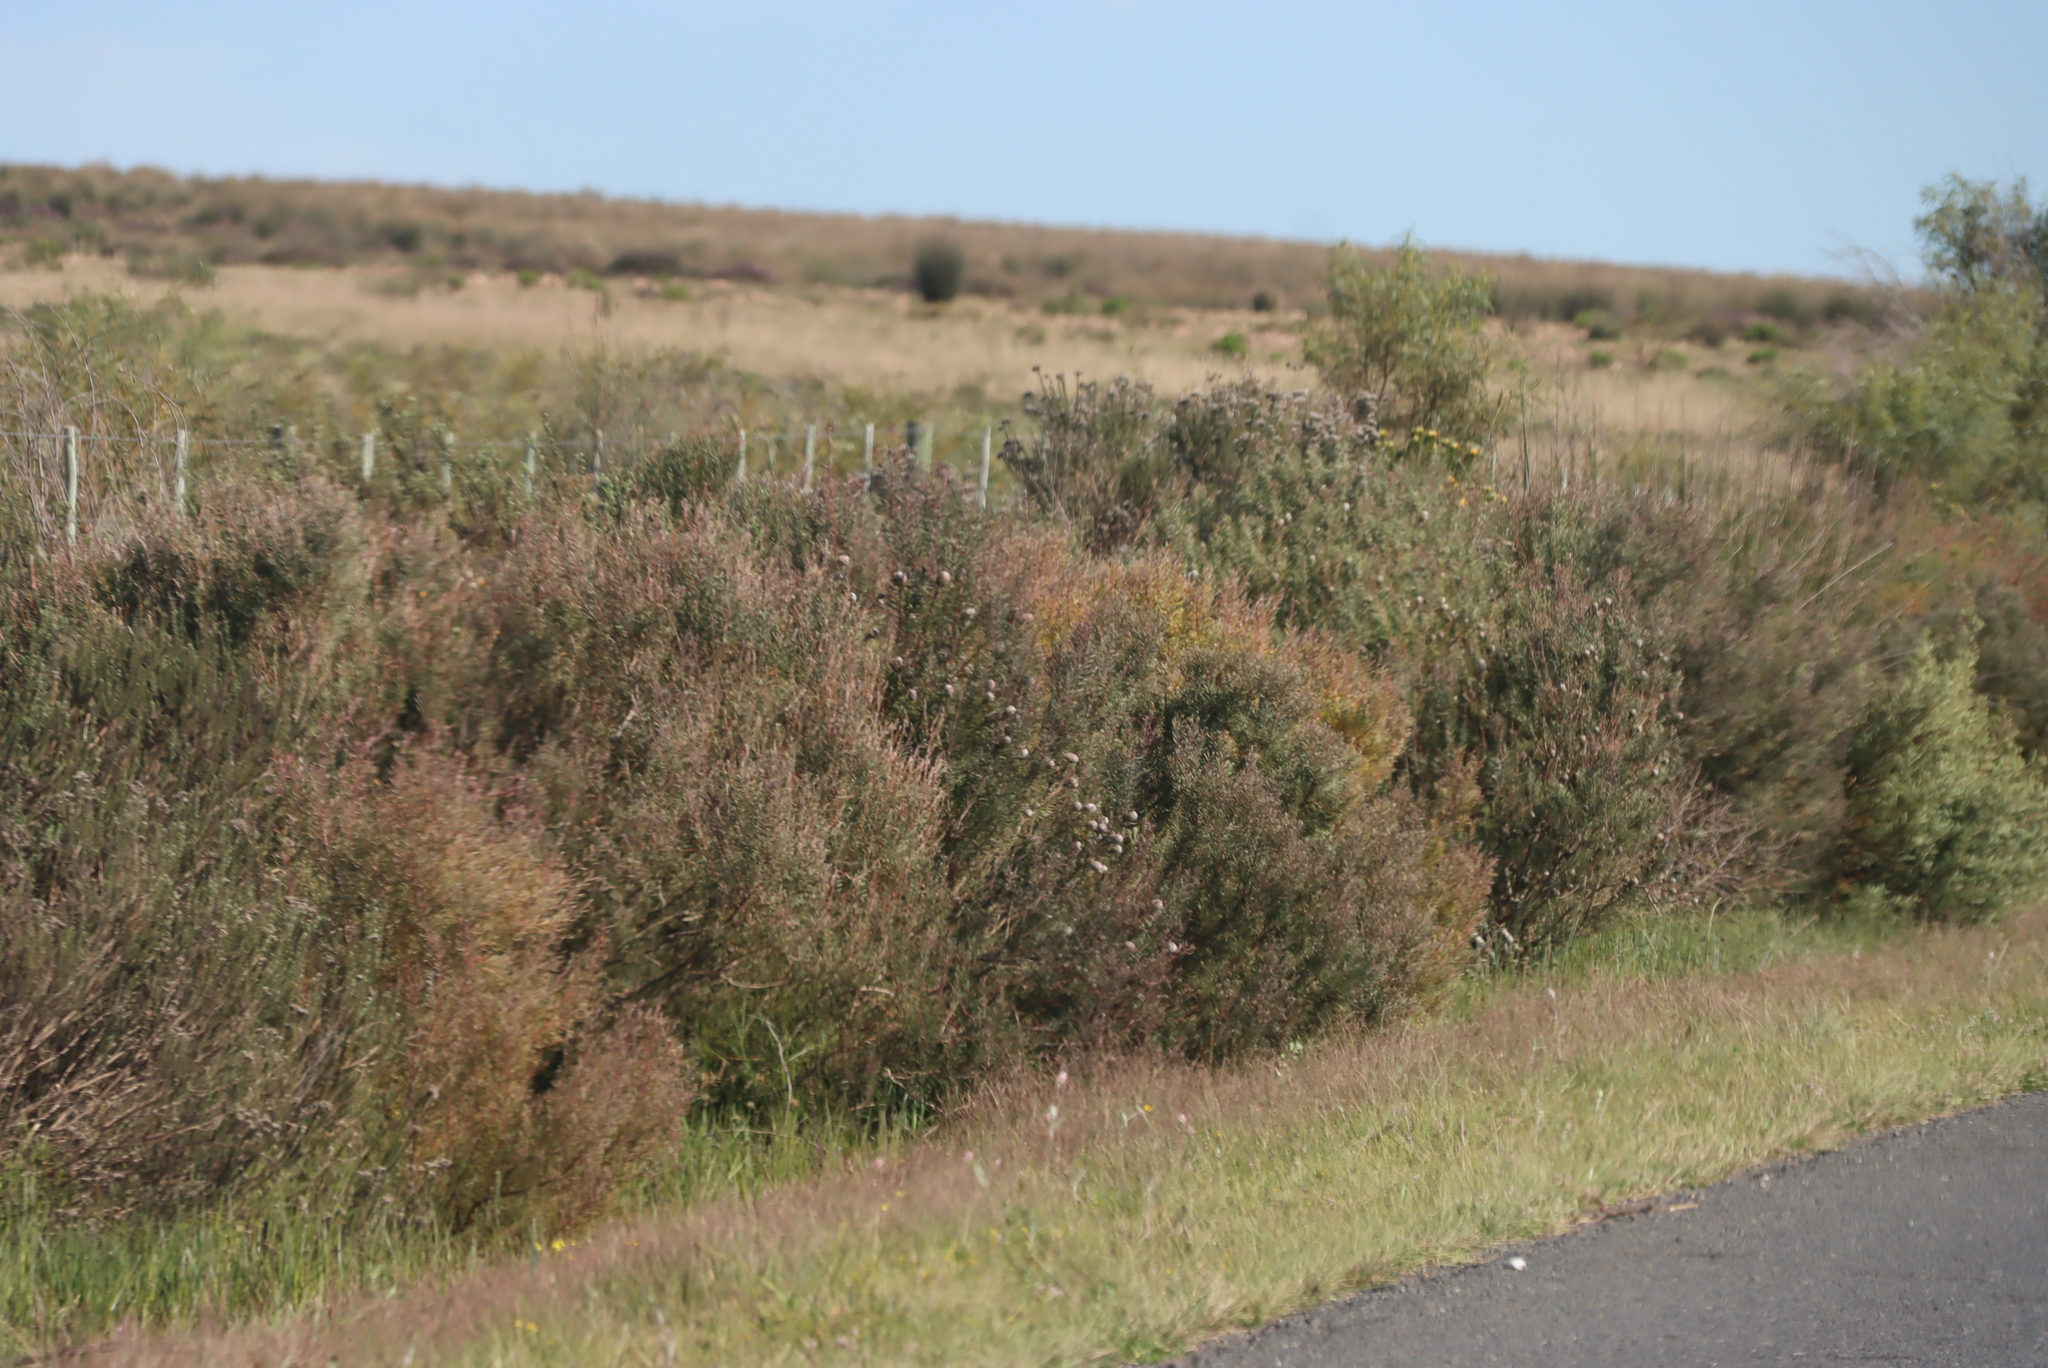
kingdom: Plantae
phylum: Tracheophyta
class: Magnoliopsida
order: Proteales
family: Proteaceae
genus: Leucadendron
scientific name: Leucadendron galpinii
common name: Hairless conebush
